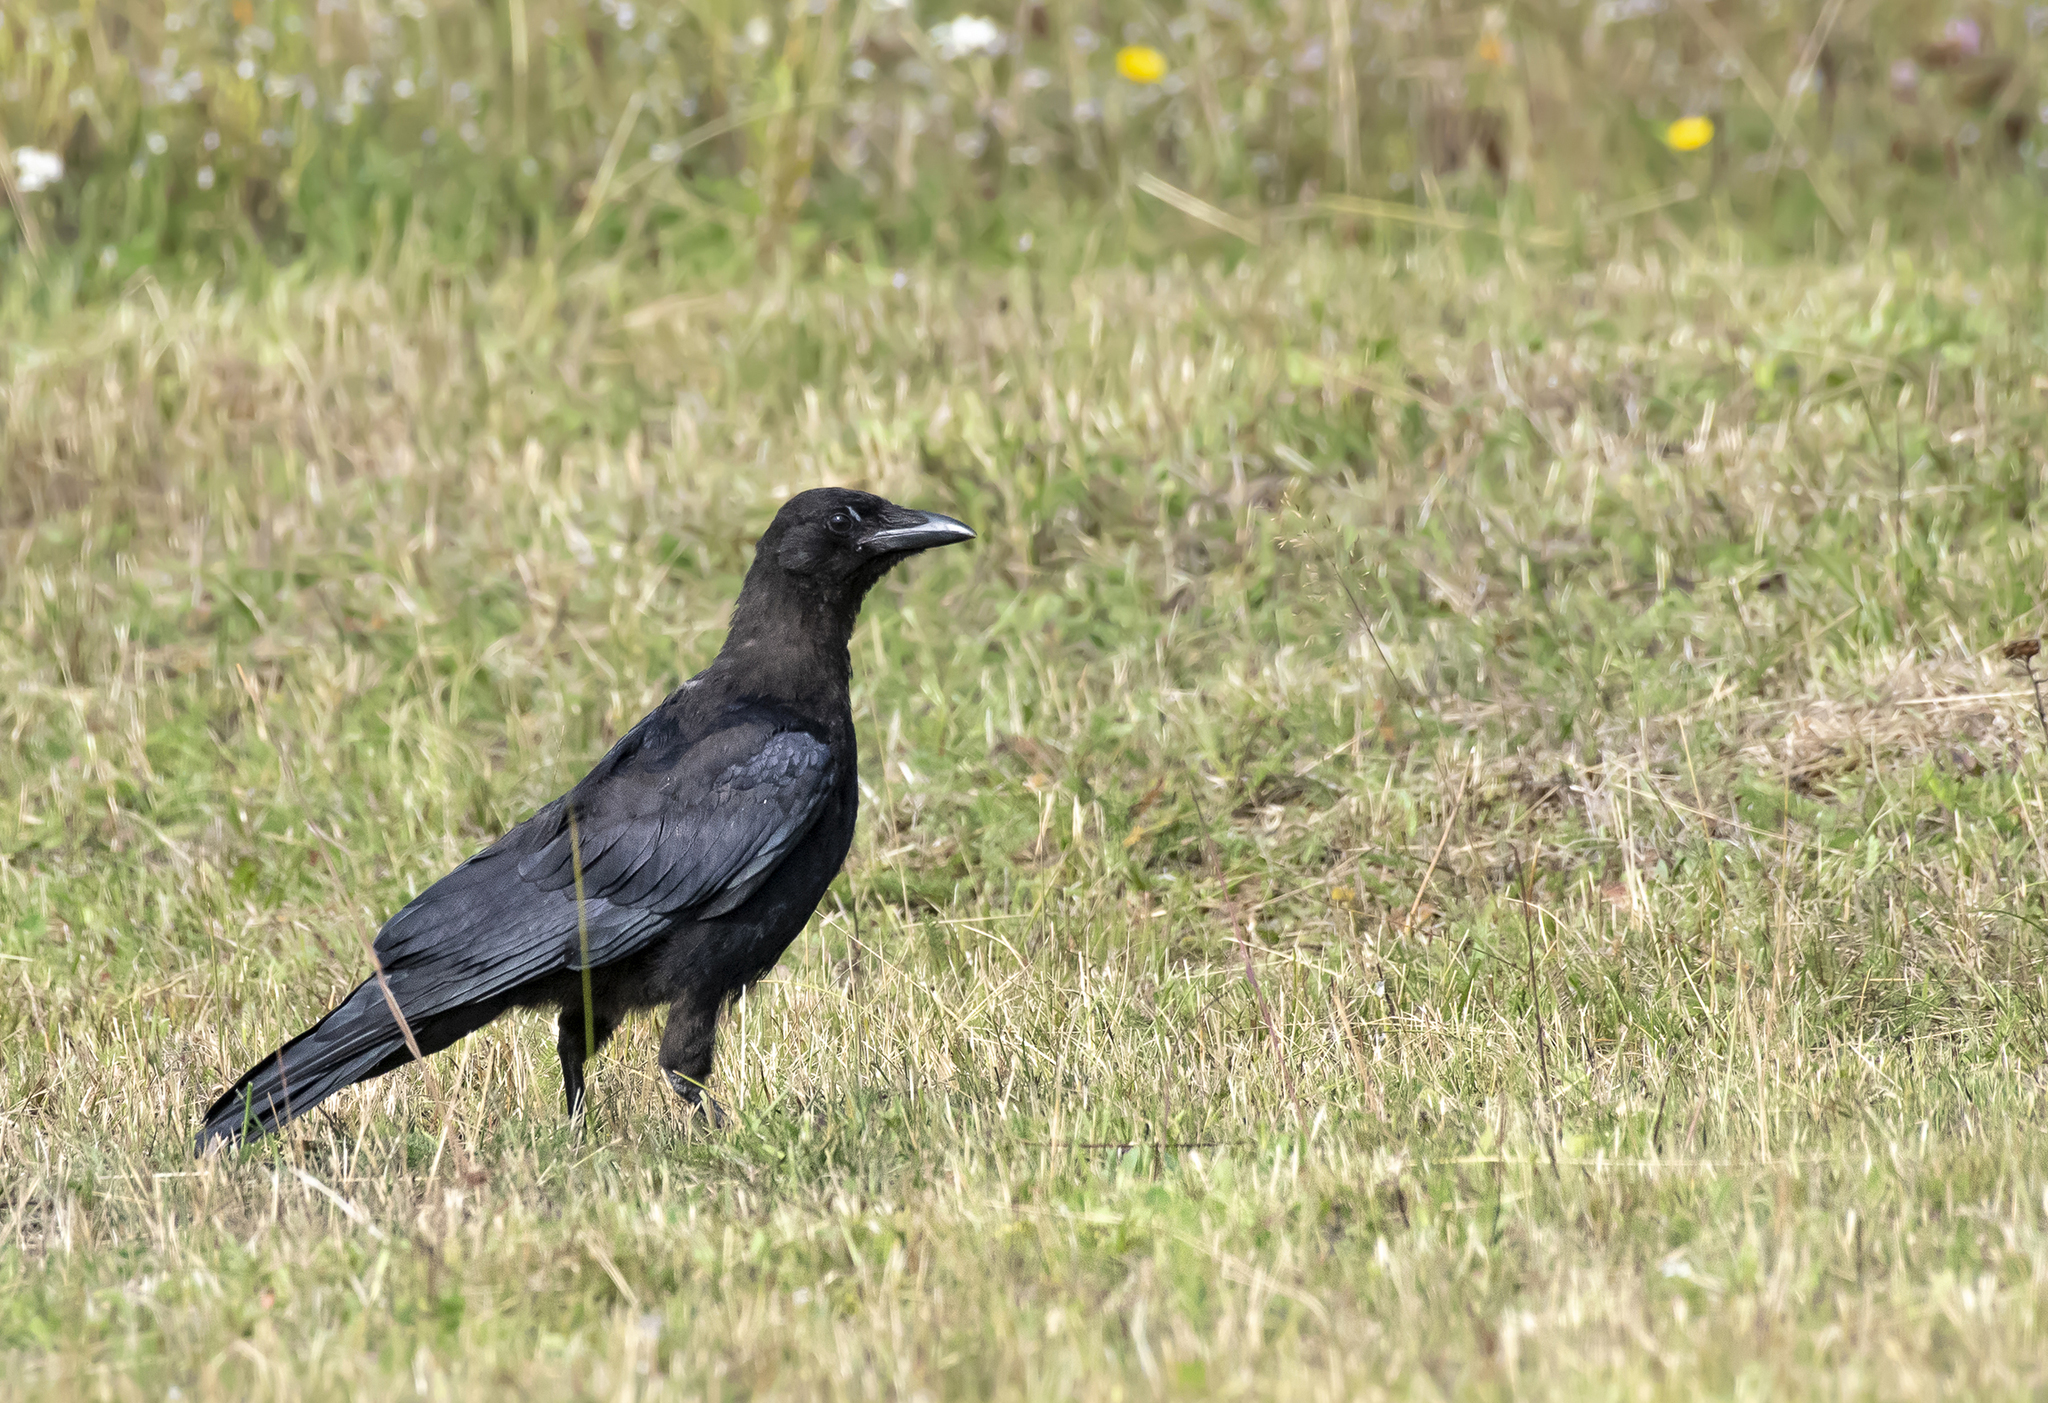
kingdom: Animalia
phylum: Chordata
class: Aves
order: Passeriformes
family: Corvidae
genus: Corvus
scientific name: Corvus corone
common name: Carrion crow
